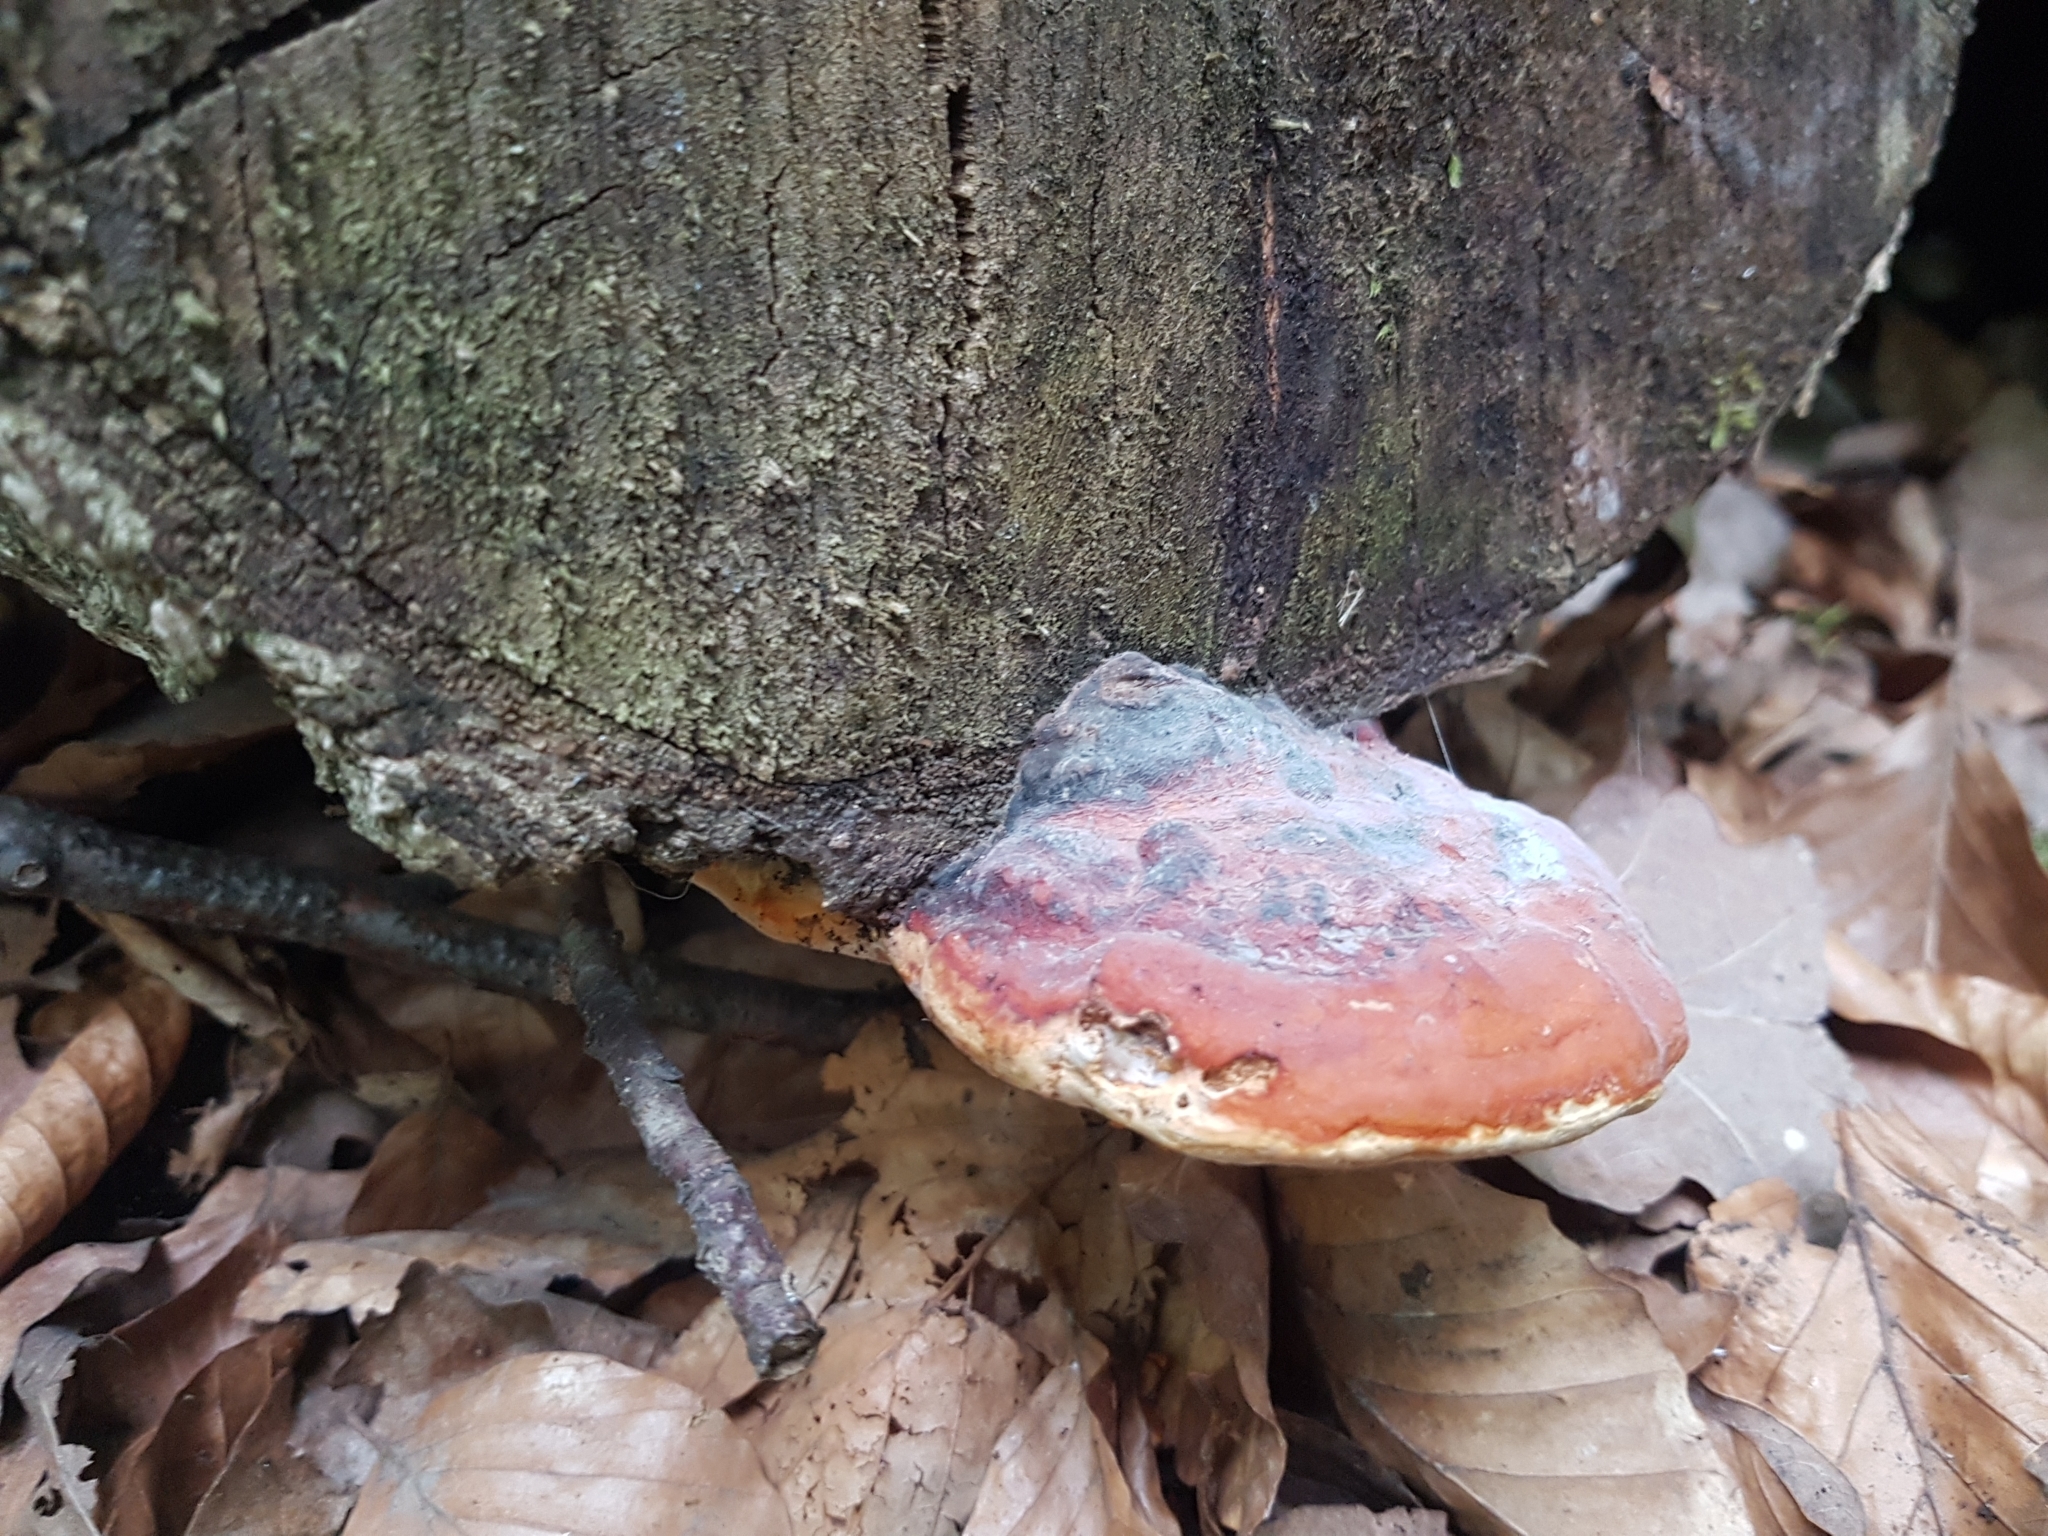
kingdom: Fungi
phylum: Basidiomycota
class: Agaricomycetes
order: Polyporales
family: Fomitopsidaceae
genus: Fomitopsis
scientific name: Fomitopsis pinicola
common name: Red-belted bracket
